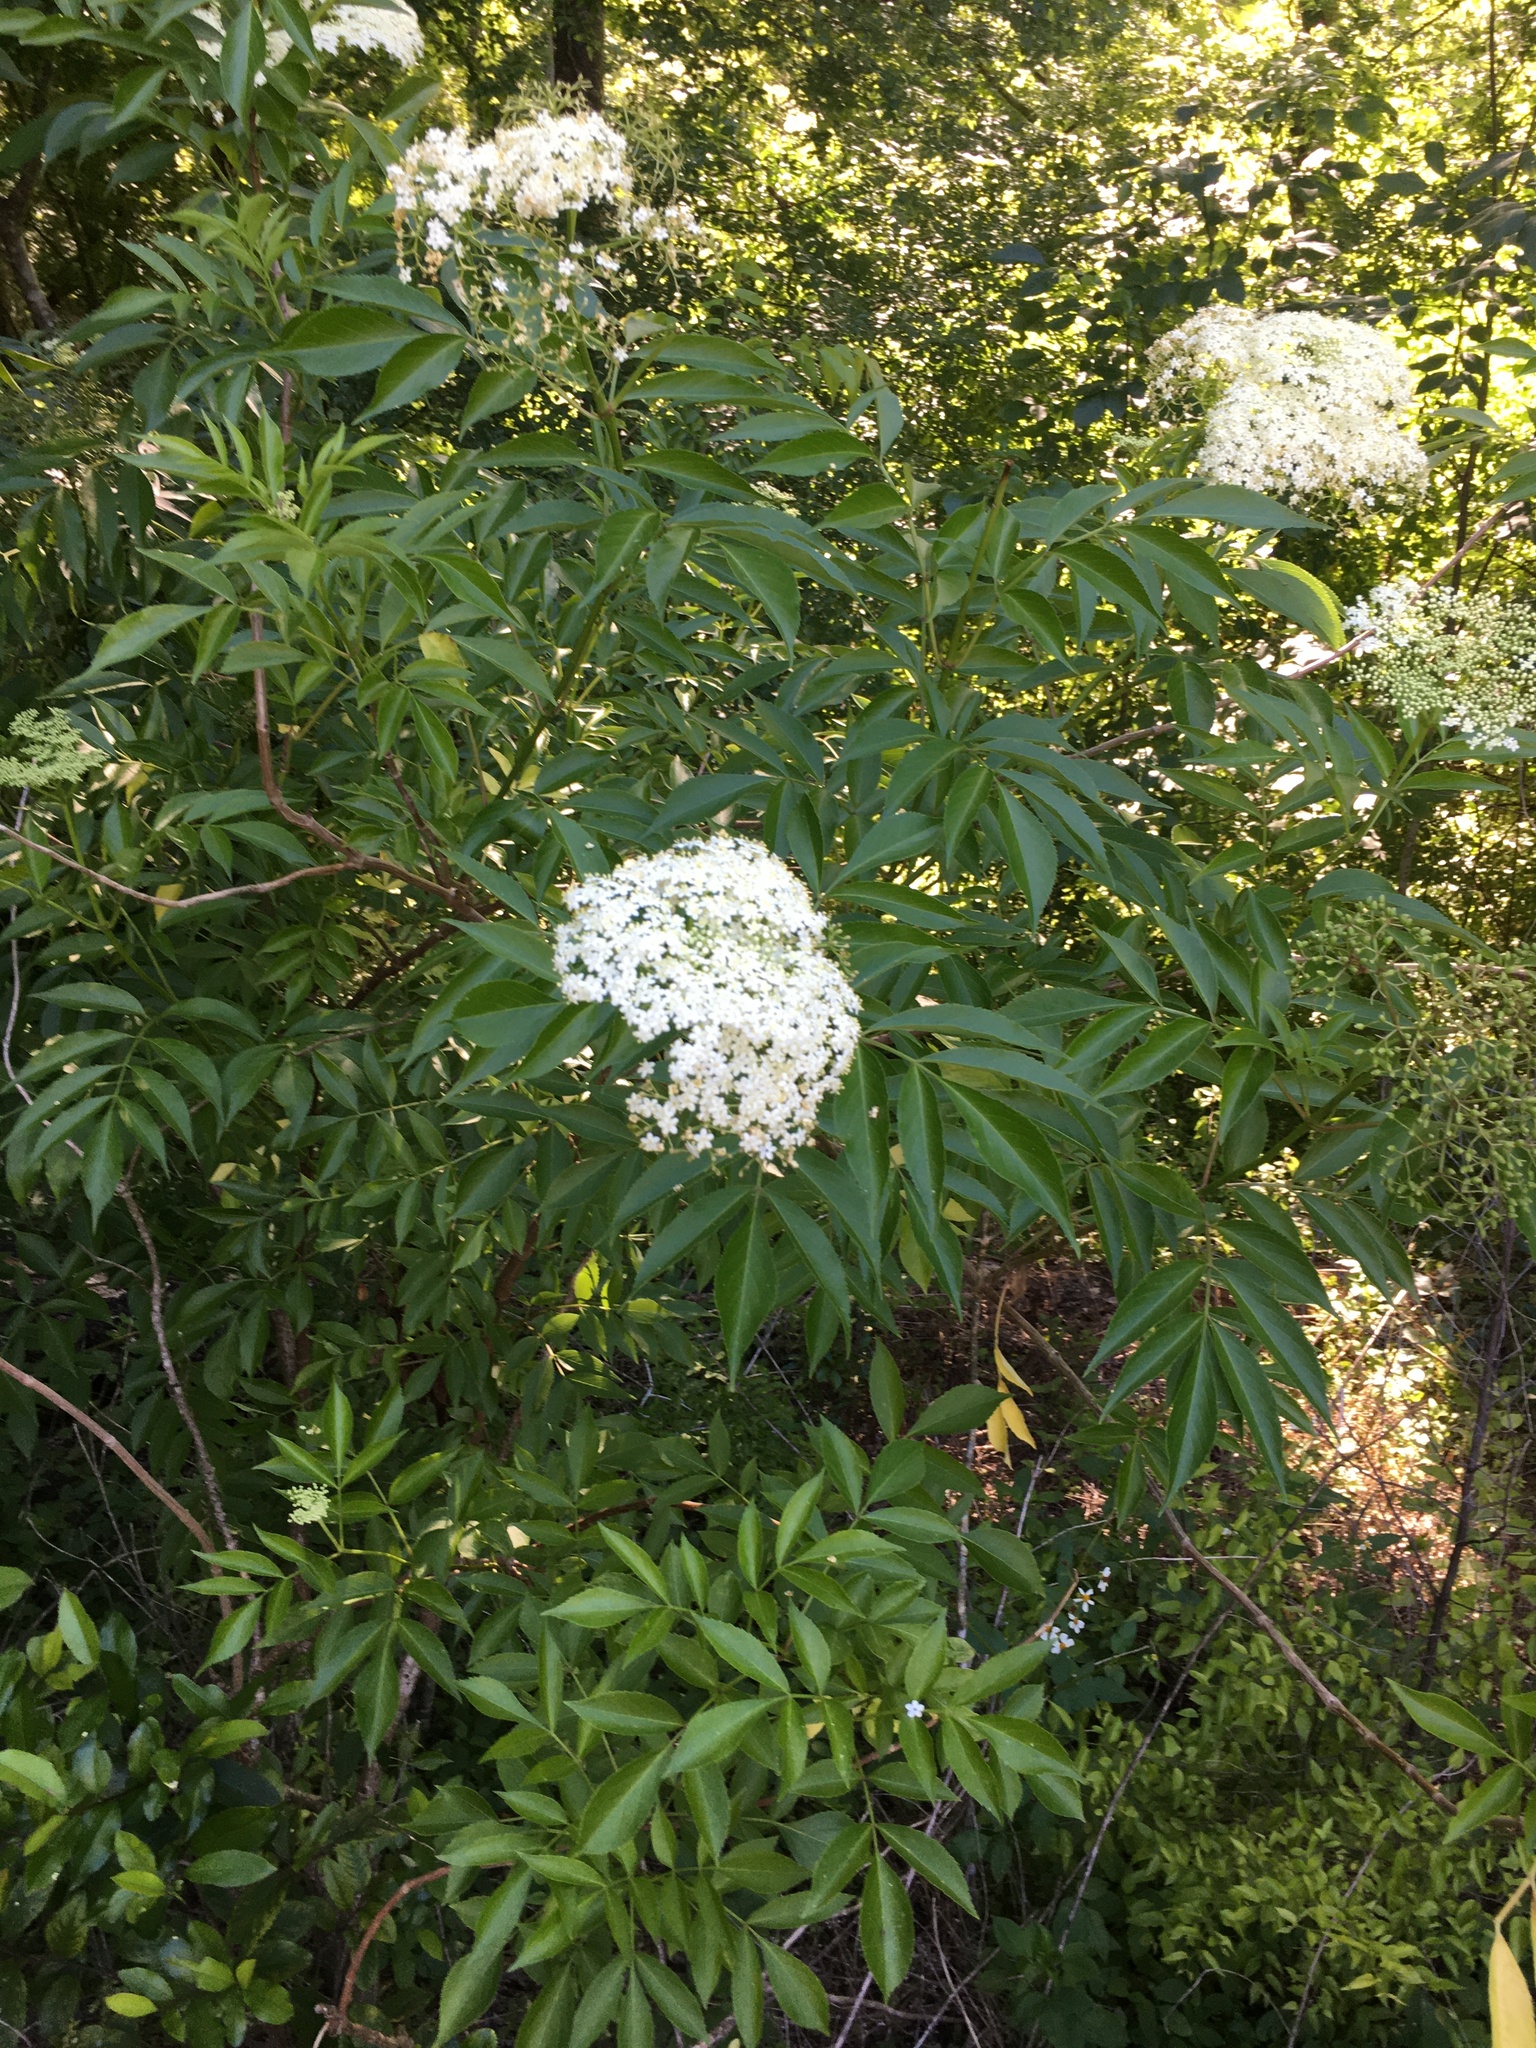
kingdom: Plantae
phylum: Tracheophyta
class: Magnoliopsida
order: Dipsacales
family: Viburnaceae
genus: Sambucus
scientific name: Sambucus canadensis
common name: American elder
